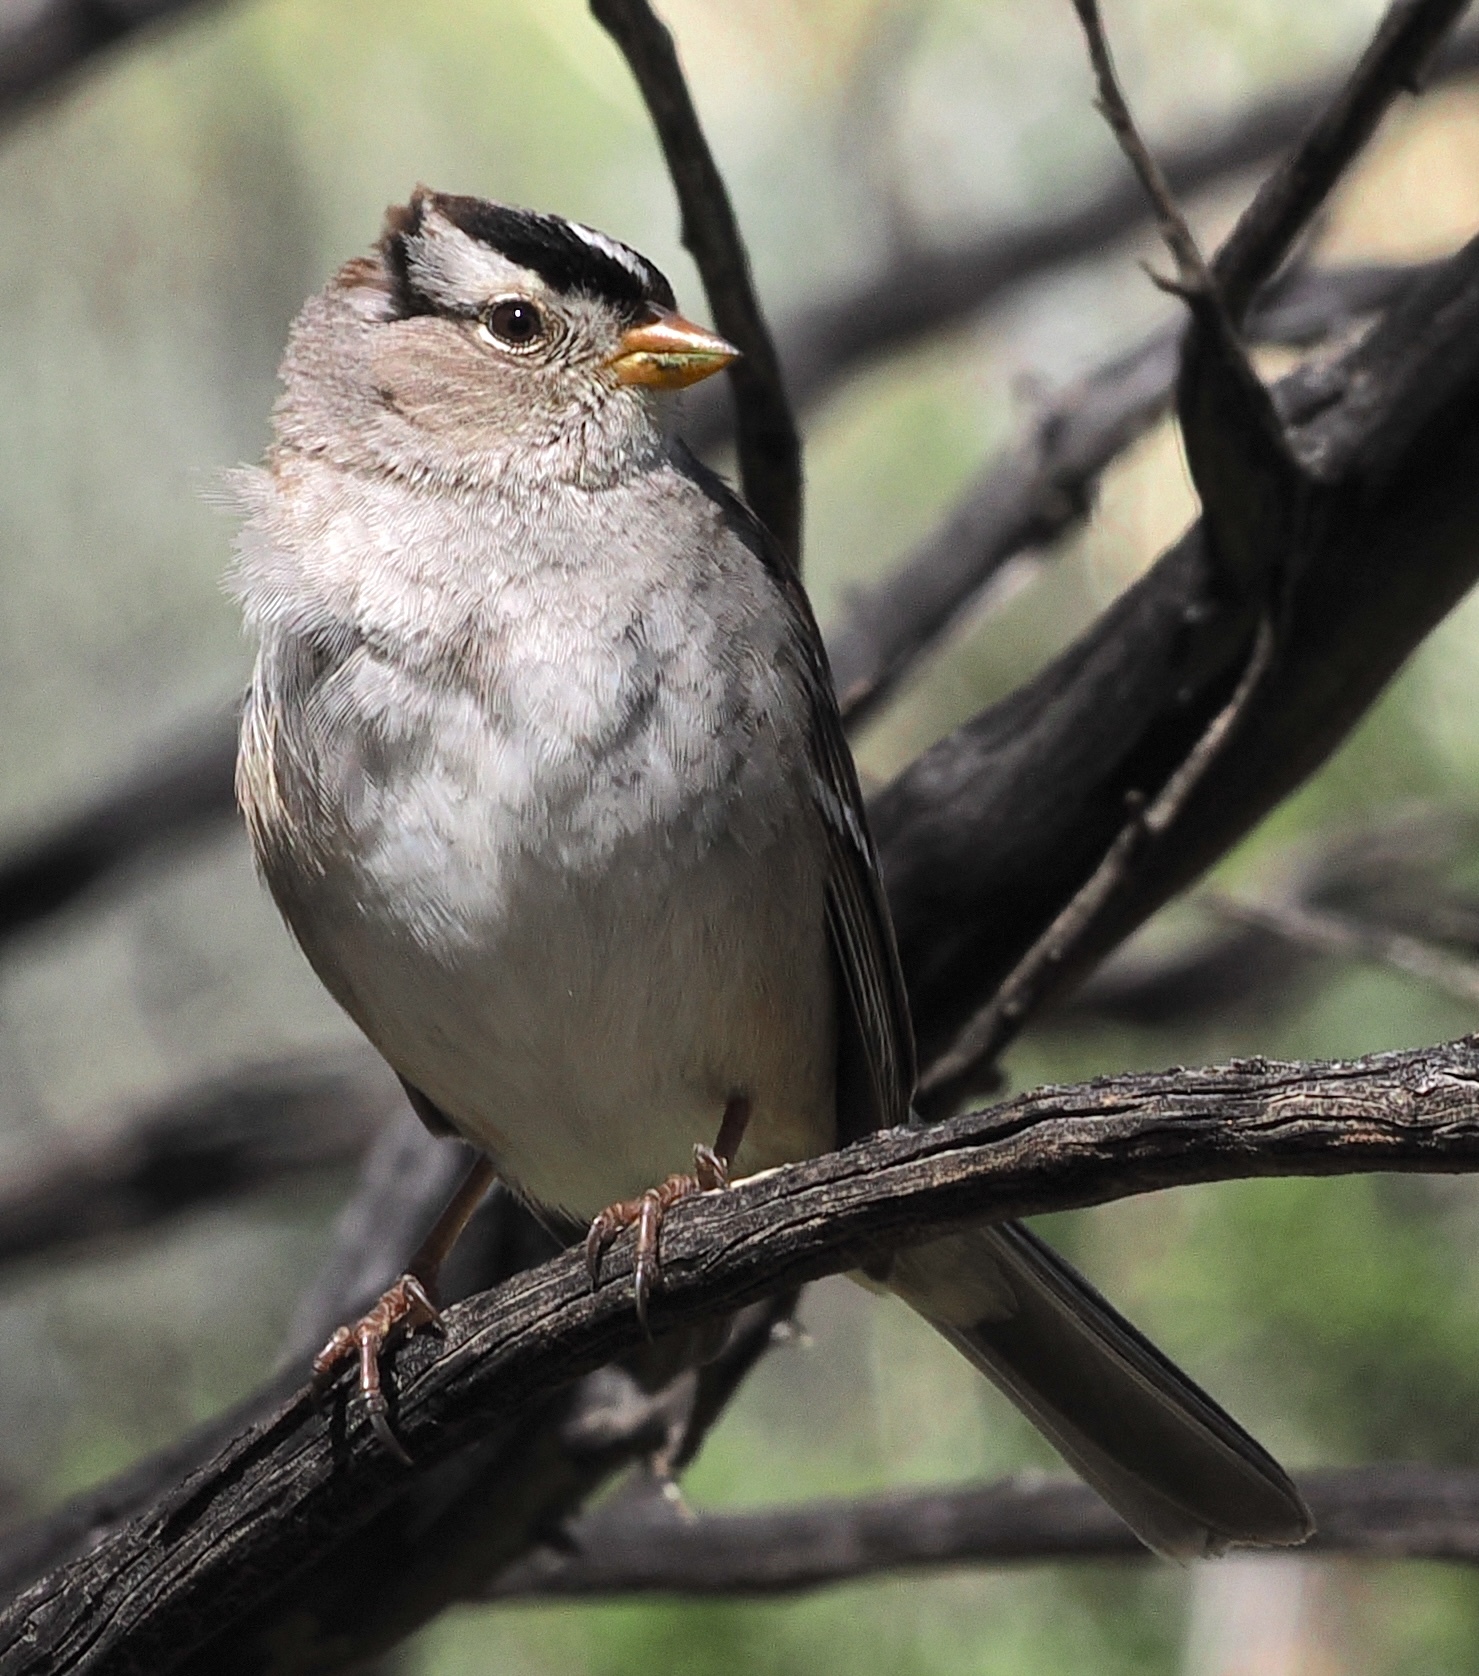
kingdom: Animalia
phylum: Chordata
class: Aves
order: Passeriformes
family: Passerellidae
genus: Zonotrichia
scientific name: Zonotrichia leucophrys
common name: White-crowned sparrow
